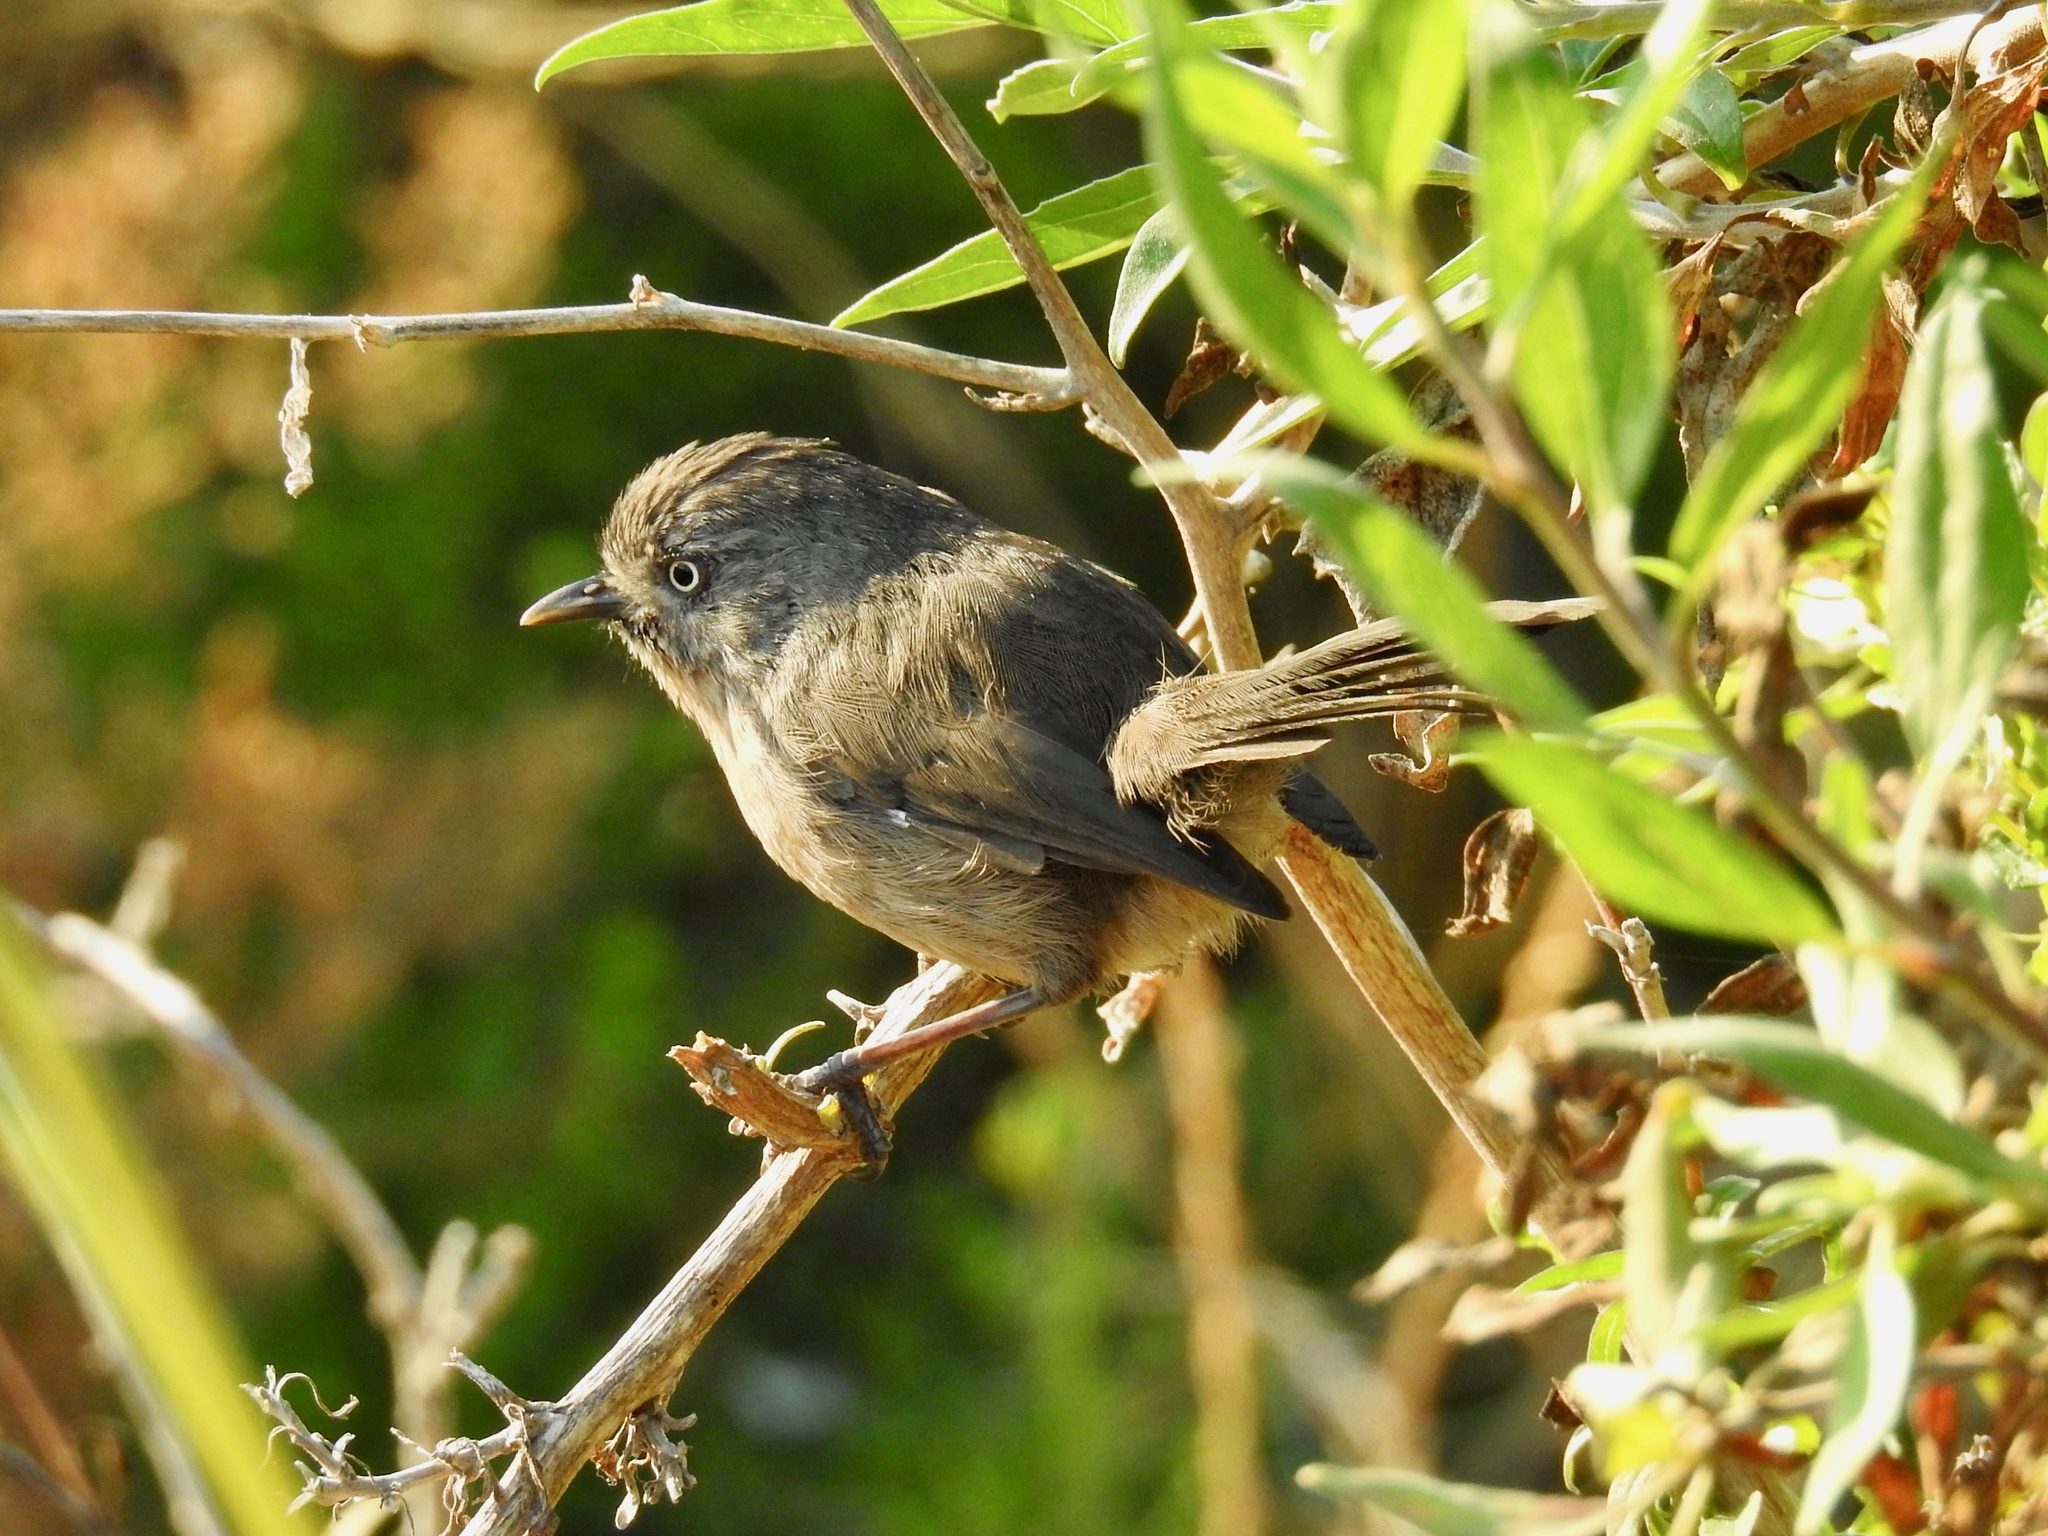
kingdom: Animalia
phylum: Chordata
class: Aves
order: Passeriformes
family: Sylviidae
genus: Chamaea
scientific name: Chamaea fasciata
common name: Wrentit
